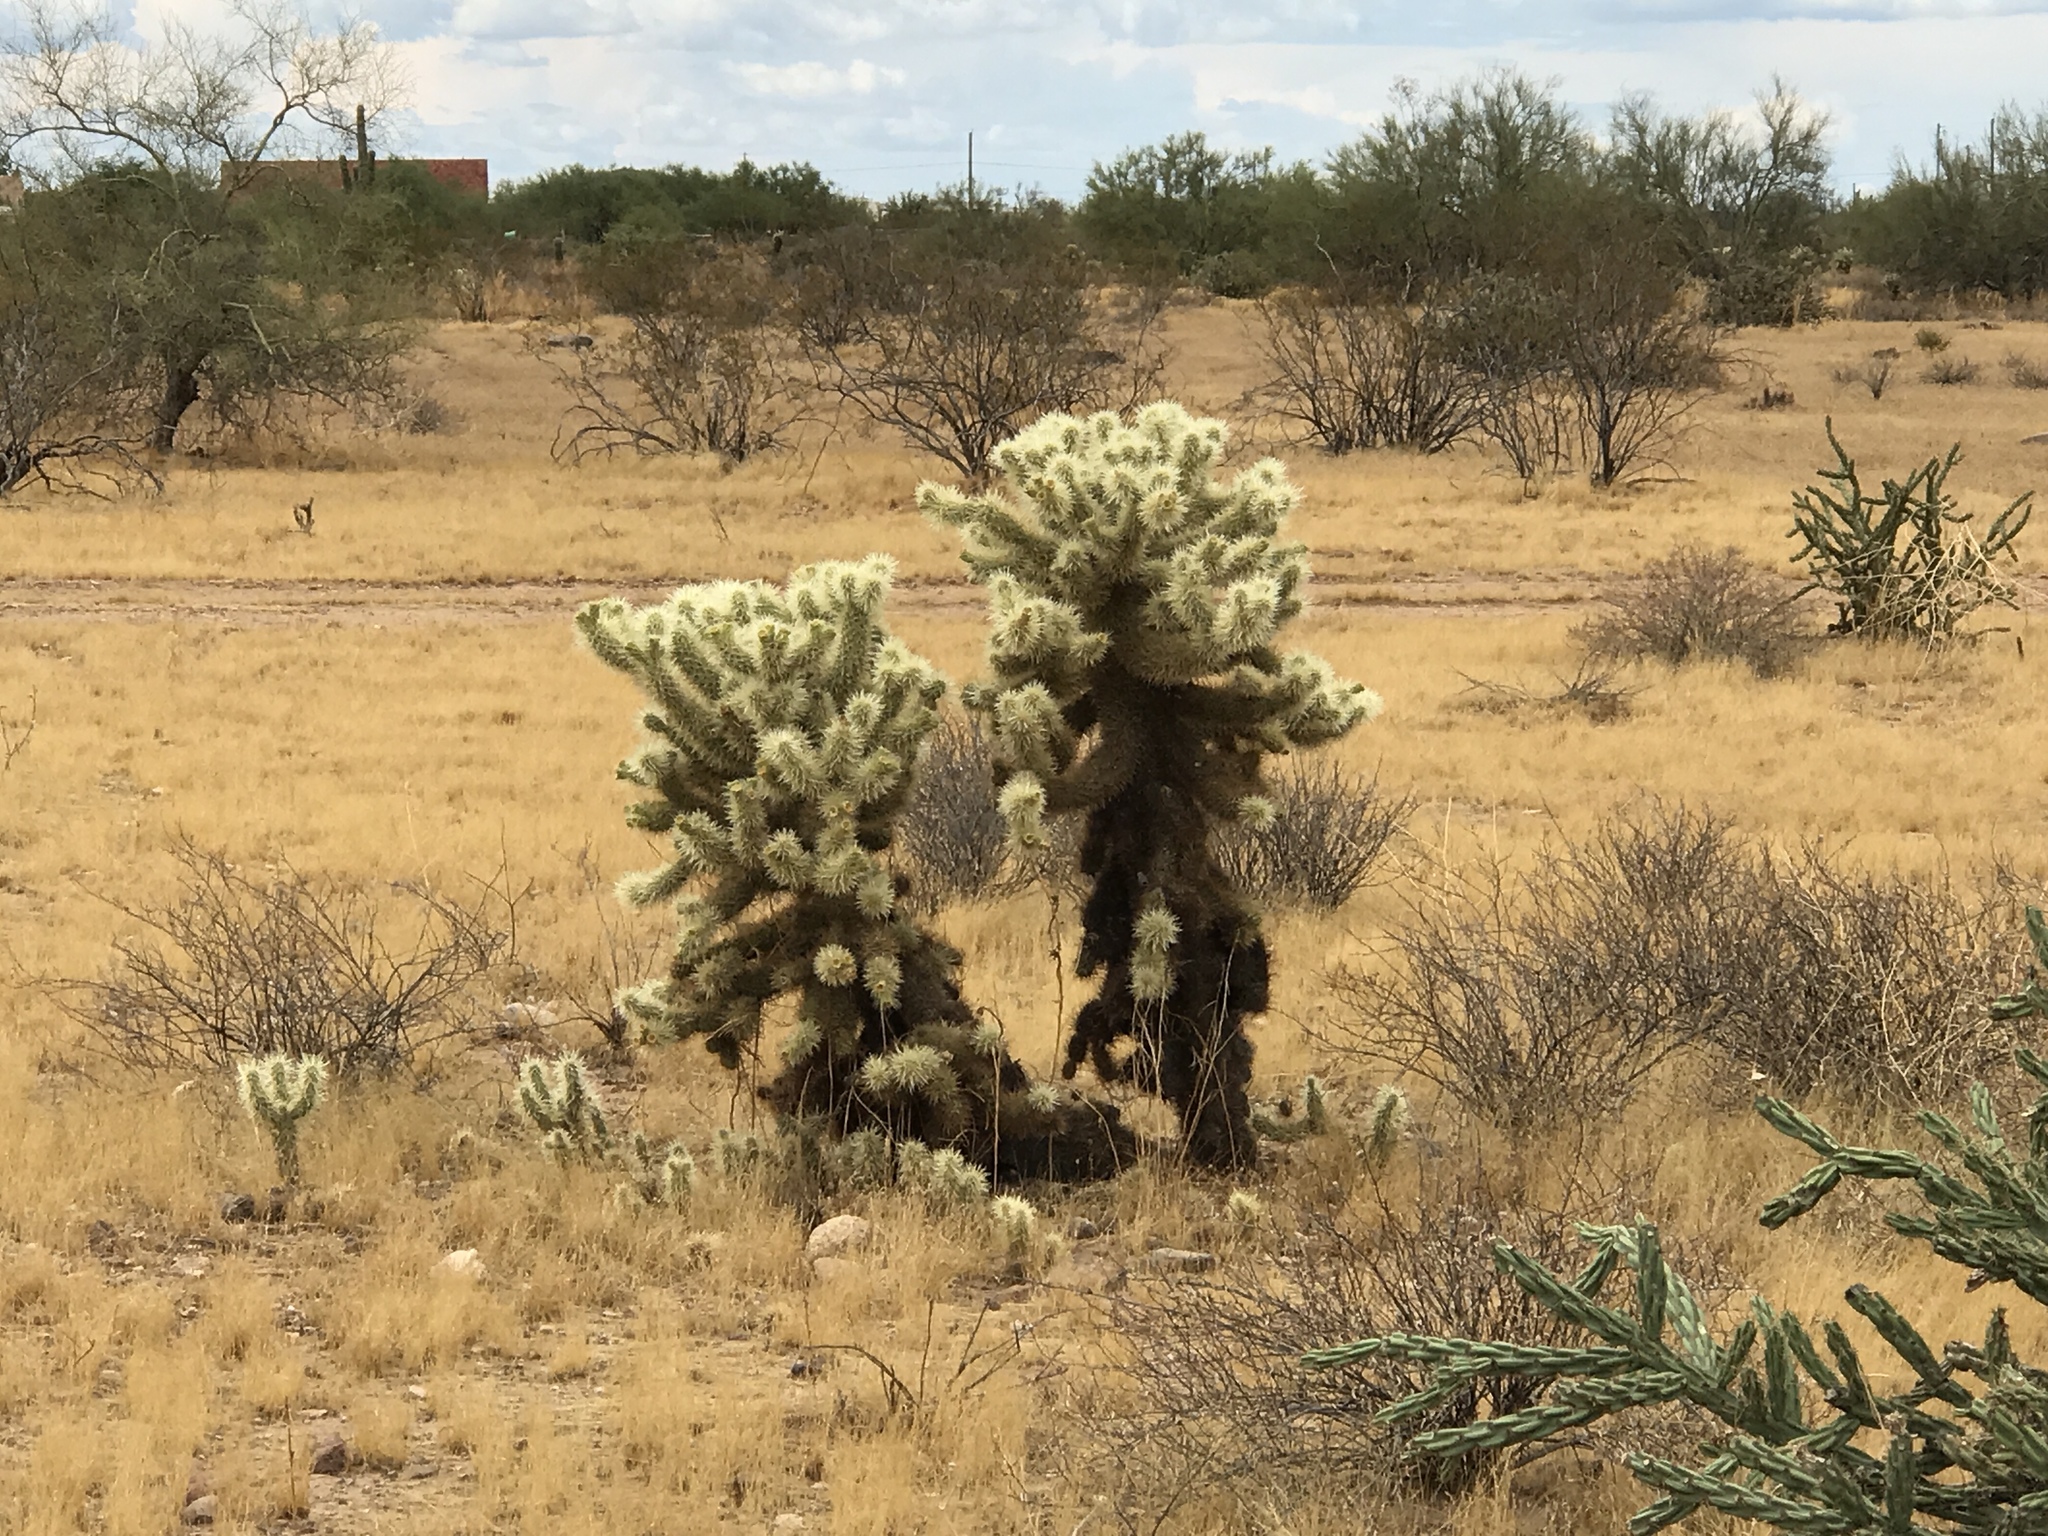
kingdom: Plantae
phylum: Tracheophyta
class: Magnoliopsida
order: Caryophyllales
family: Cactaceae
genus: Cylindropuntia
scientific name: Cylindropuntia fosbergii
